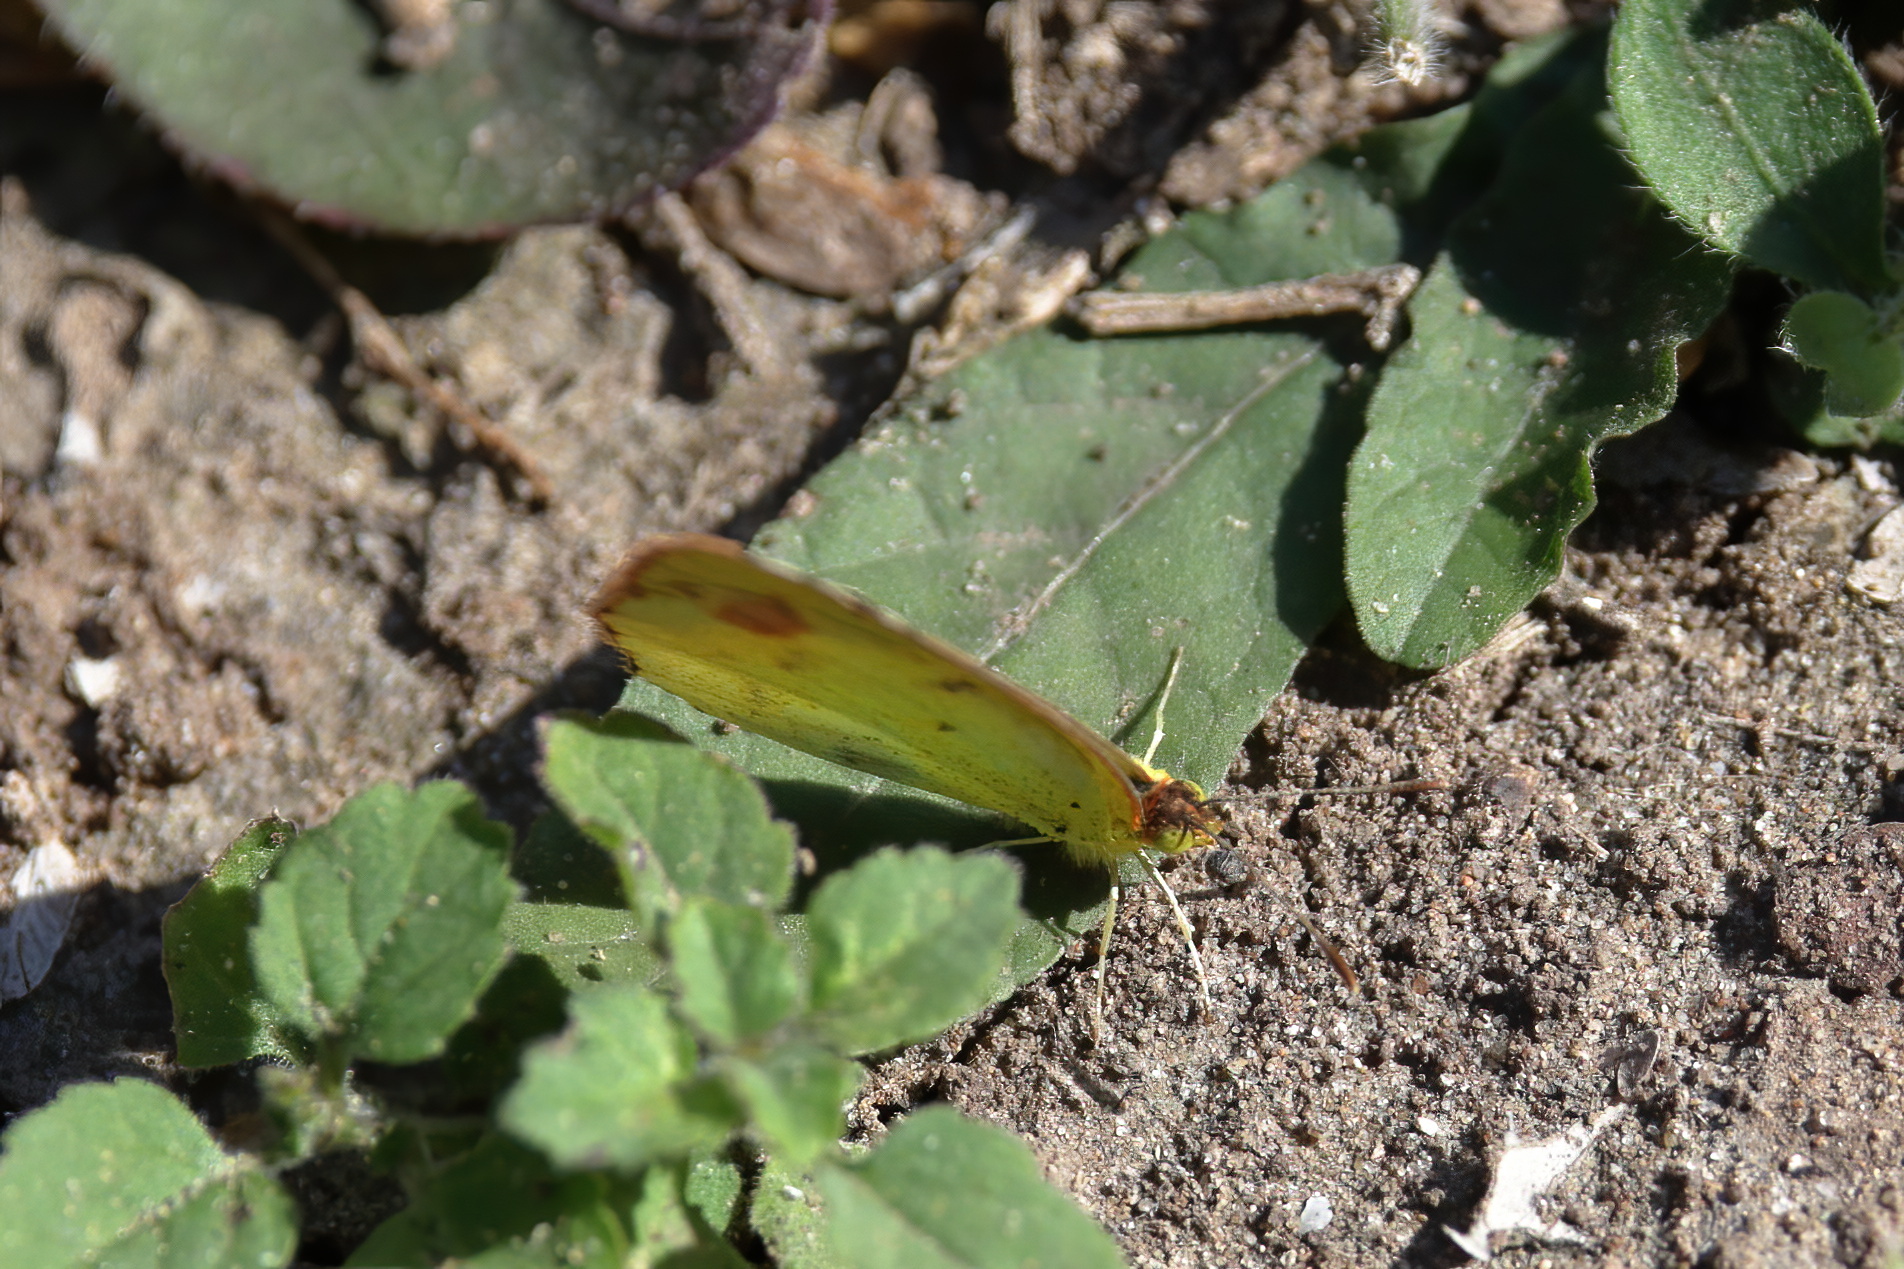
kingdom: Animalia
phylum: Arthropoda
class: Insecta
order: Lepidoptera
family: Pieridae
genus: Pyrisitia
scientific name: Pyrisitia lisa
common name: Little yellow
